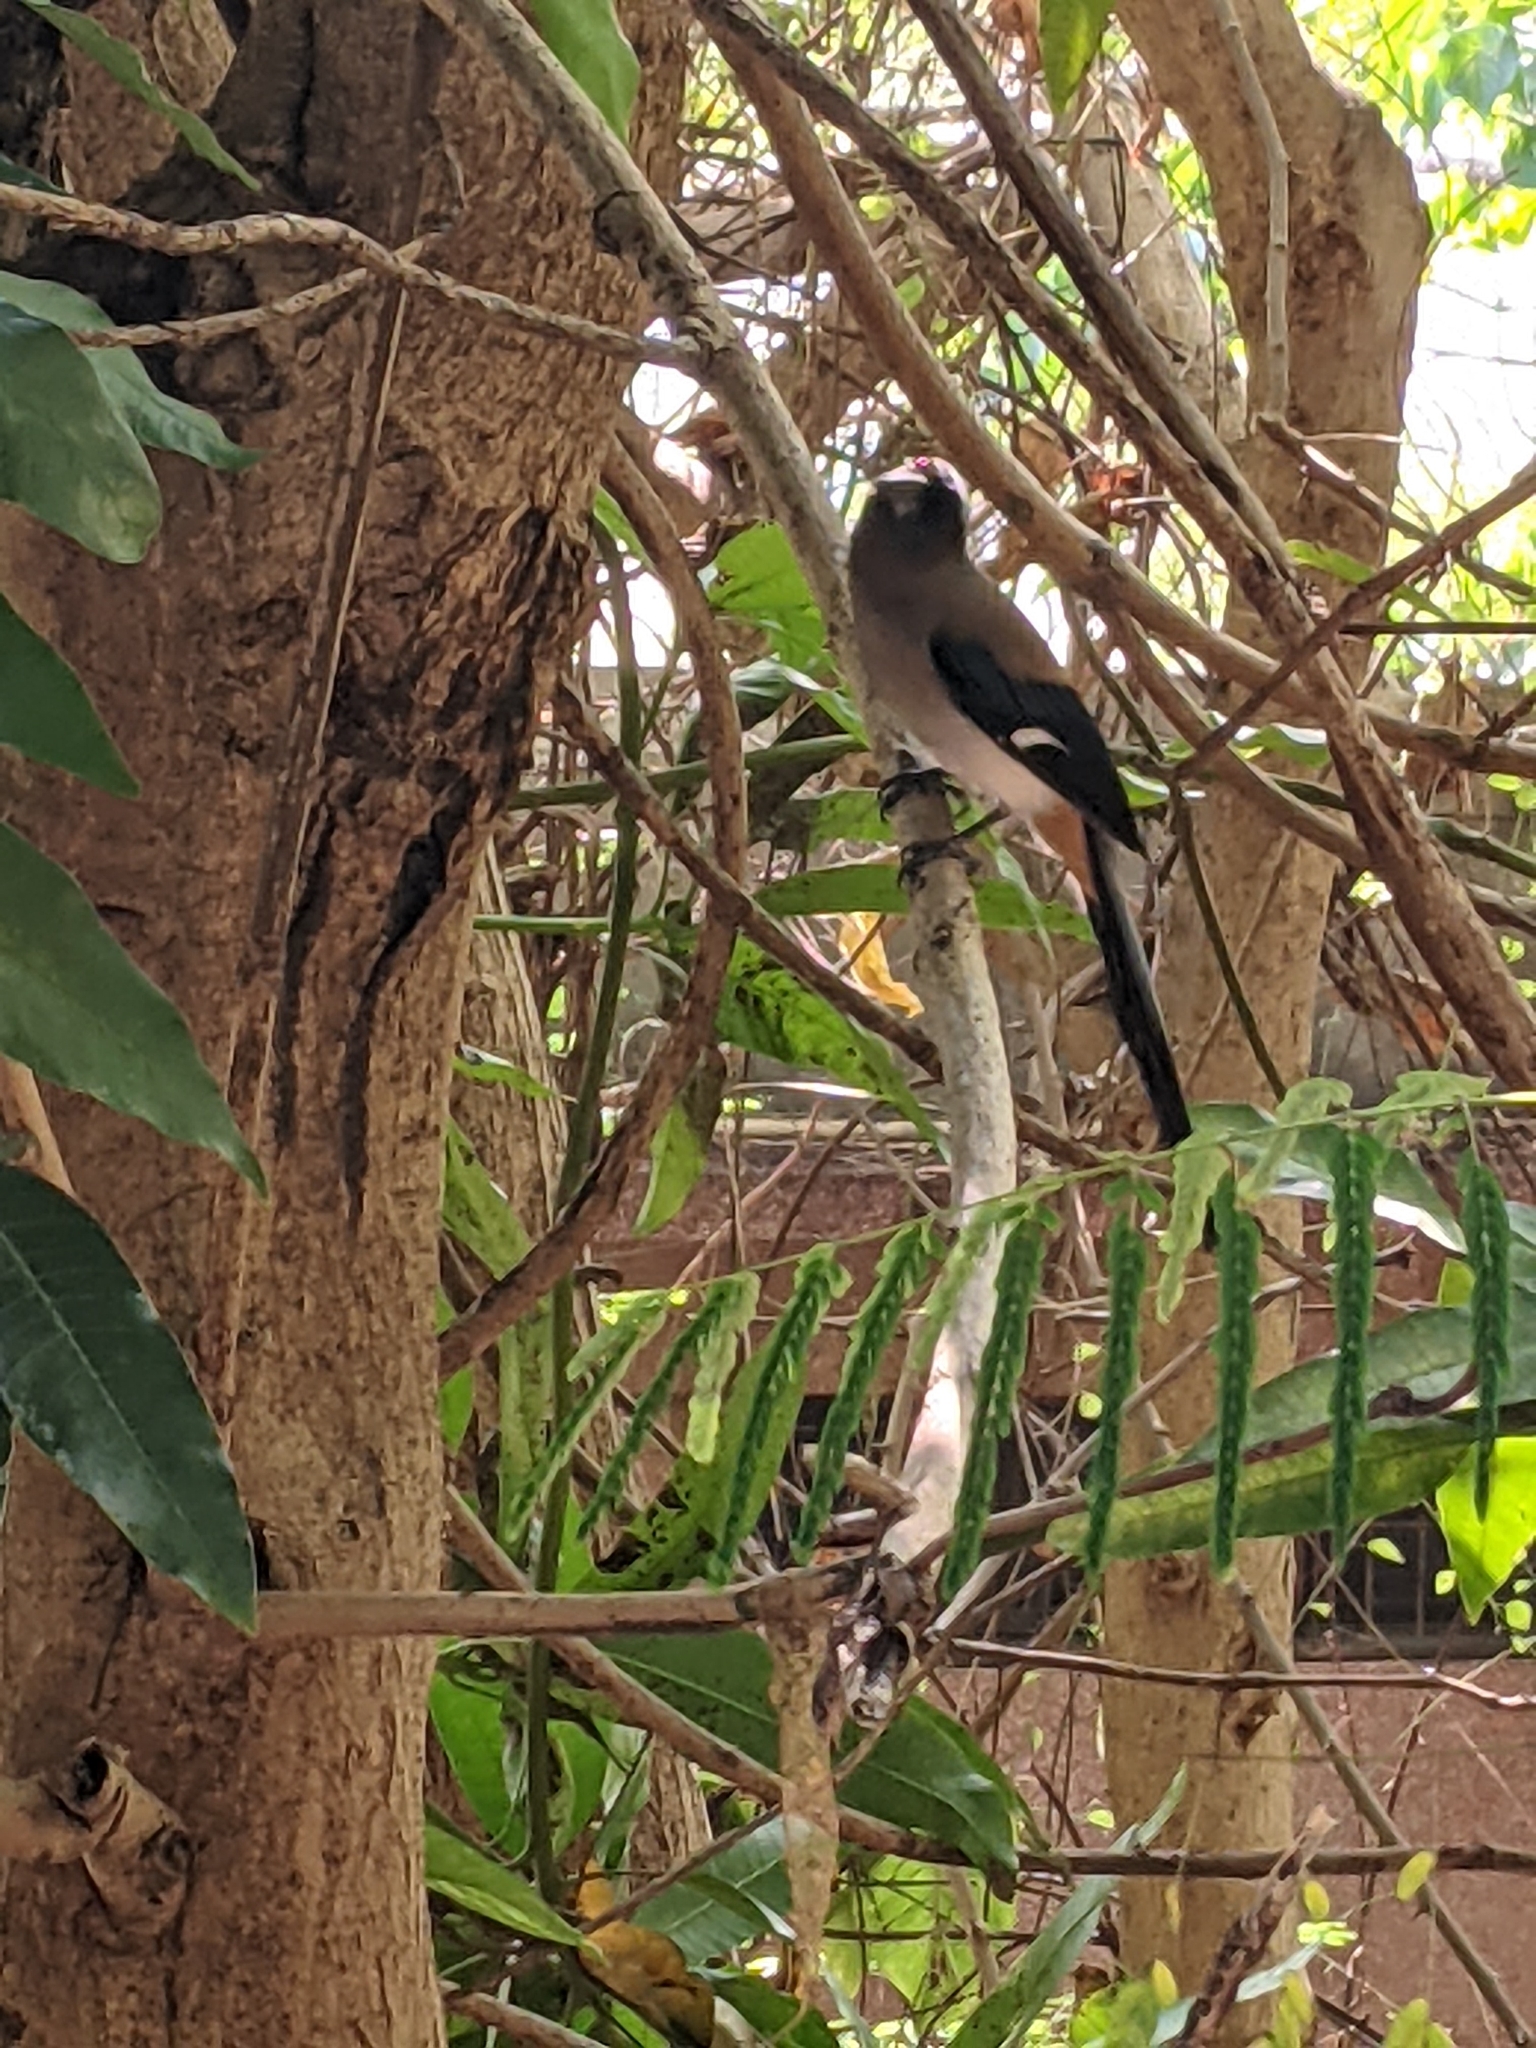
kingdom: Animalia
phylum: Chordata
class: Aves
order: Passeriformes
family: Corvidae
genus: Dendrocitta
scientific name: Dendrocitta formosae
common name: Grey treepie
